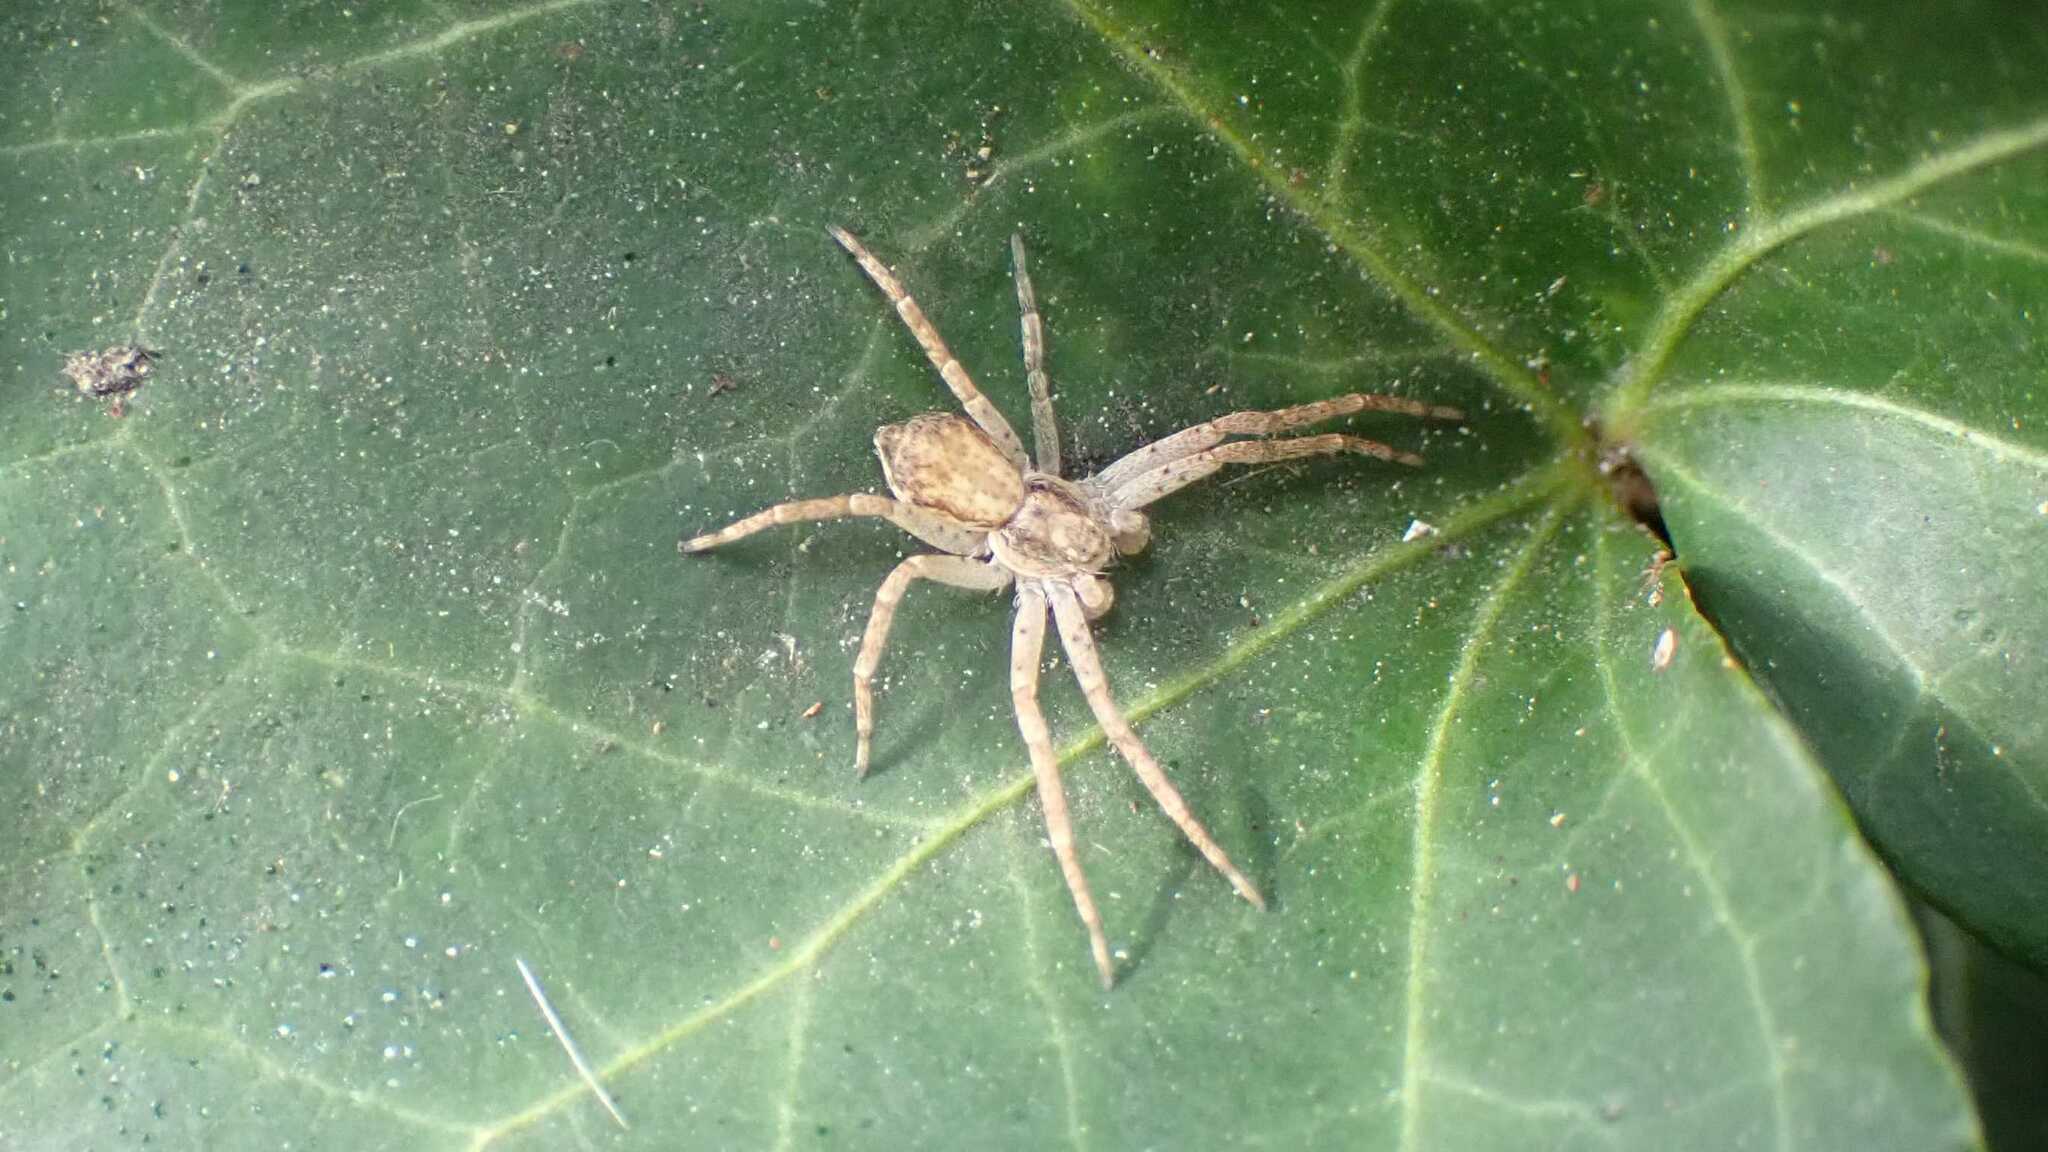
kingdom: Animalia
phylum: Arthropoda
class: Arachnida
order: Araneae
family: Philodromidae
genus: Philodromus
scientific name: Philodromus dispar
